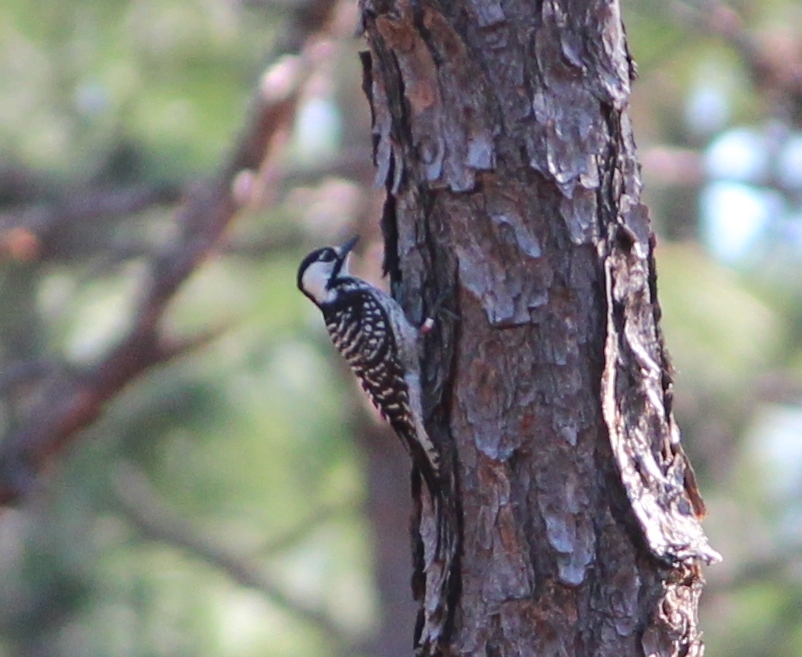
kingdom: Animalia
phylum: Chordata
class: Aves
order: Piciformes
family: Picidae
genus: Leuconotopicus
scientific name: Leuconotopicus borealis
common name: Red-cockaded woodpecker
